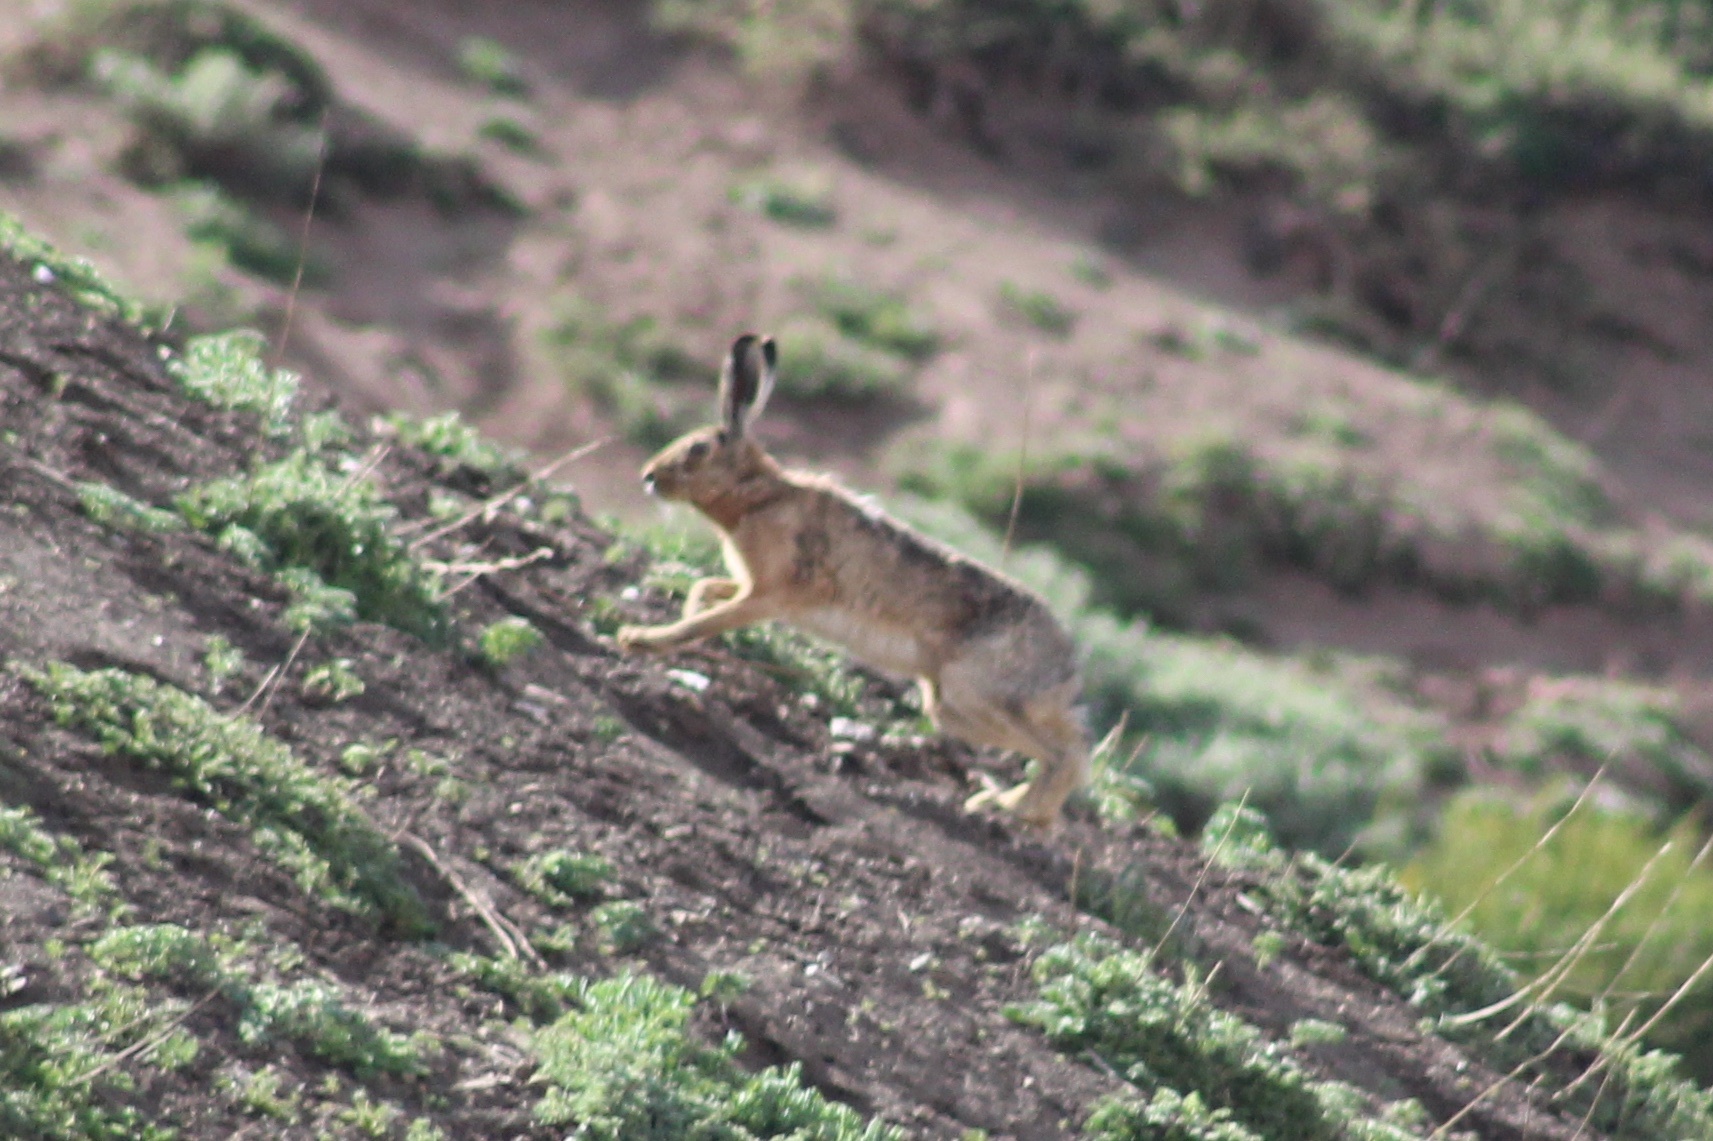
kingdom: Animalia
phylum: Chordata
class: Mammalia
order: Lagomorpha
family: Leporidae
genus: Lepus
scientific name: Lepus europaeus
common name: European hare
